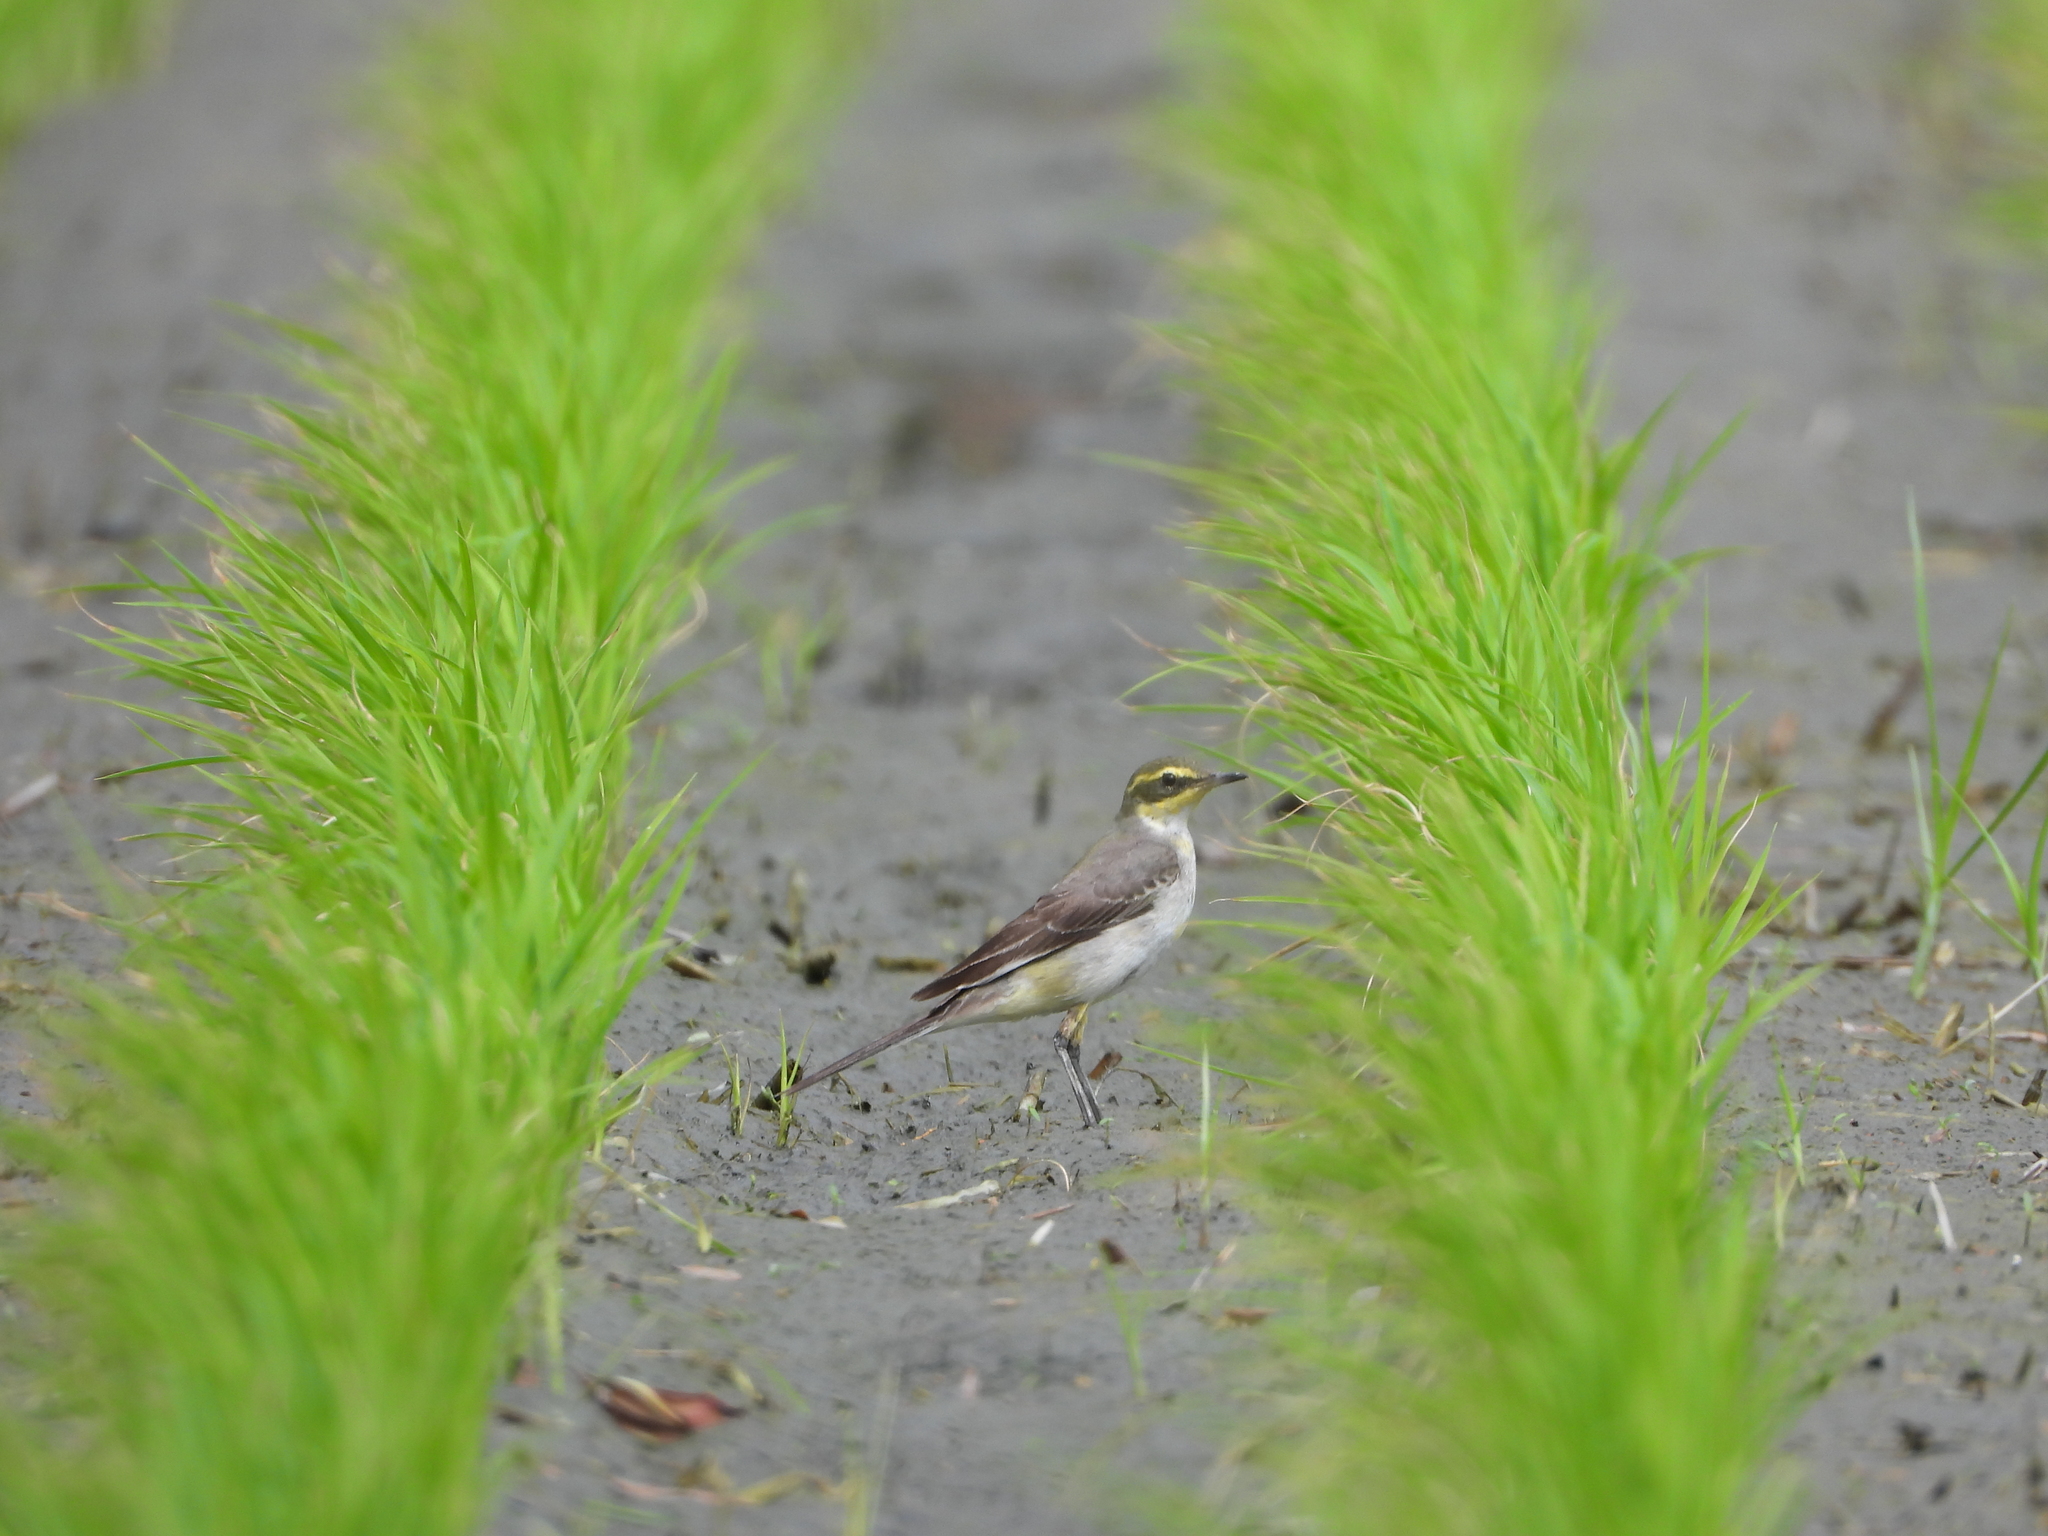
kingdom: Animalia
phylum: Chordata
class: Aves
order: Passeriformes
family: Motacillidae
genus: Motacilla
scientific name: Motacilla tschutschensis
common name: Eastern yellow wagtail
